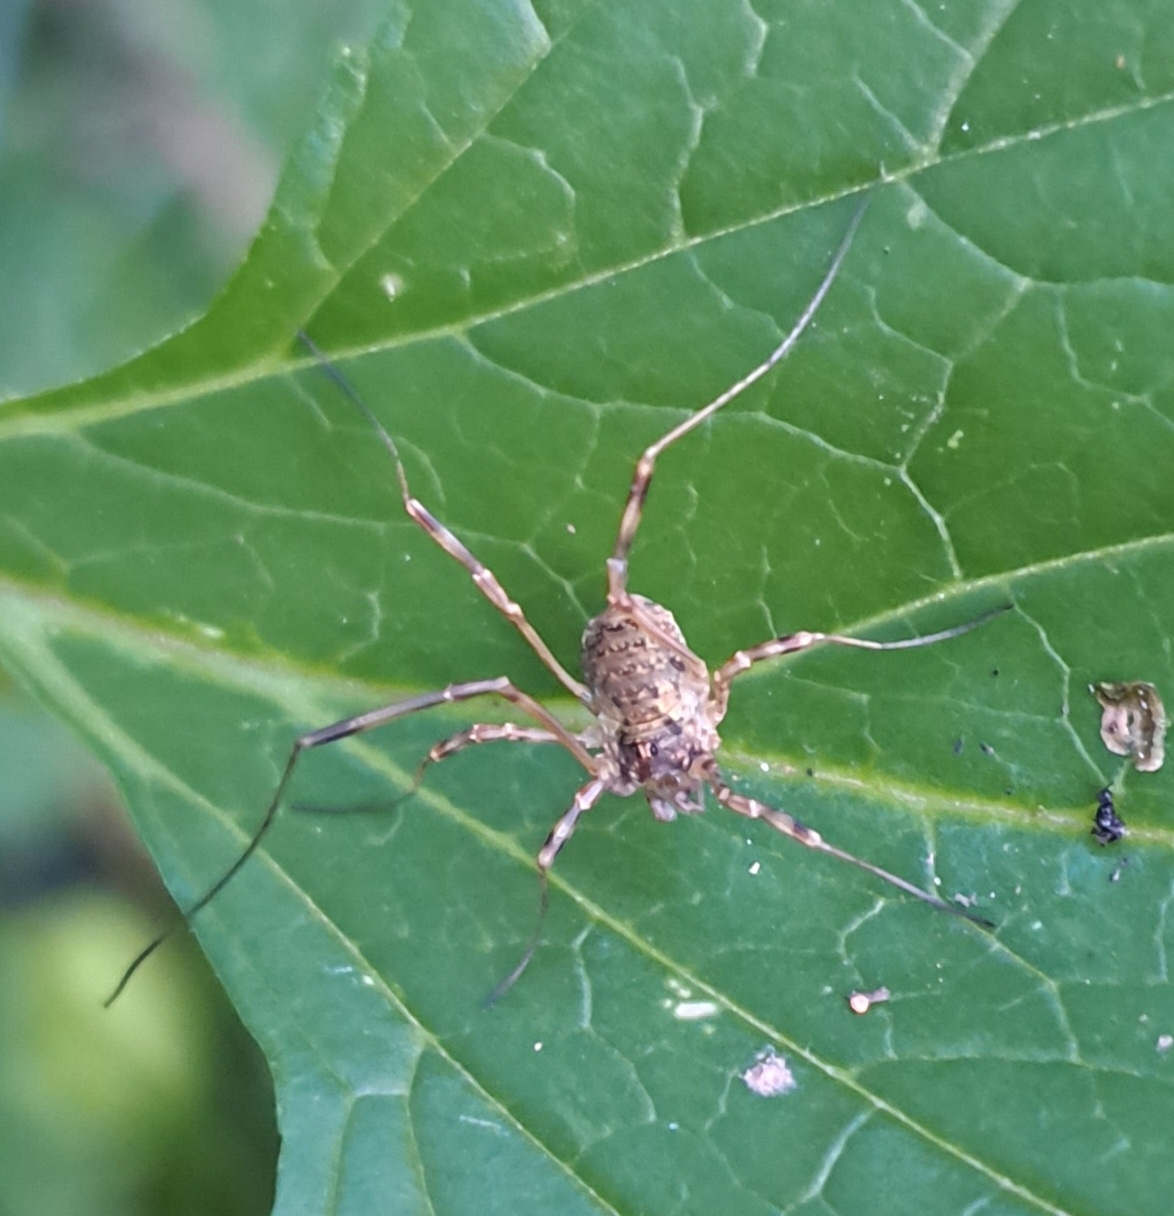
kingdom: Animalia
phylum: Arthropoda
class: Arachnida
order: Opiliones
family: Phalangiidae
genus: Oligolophus
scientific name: Oligolophus tridens
